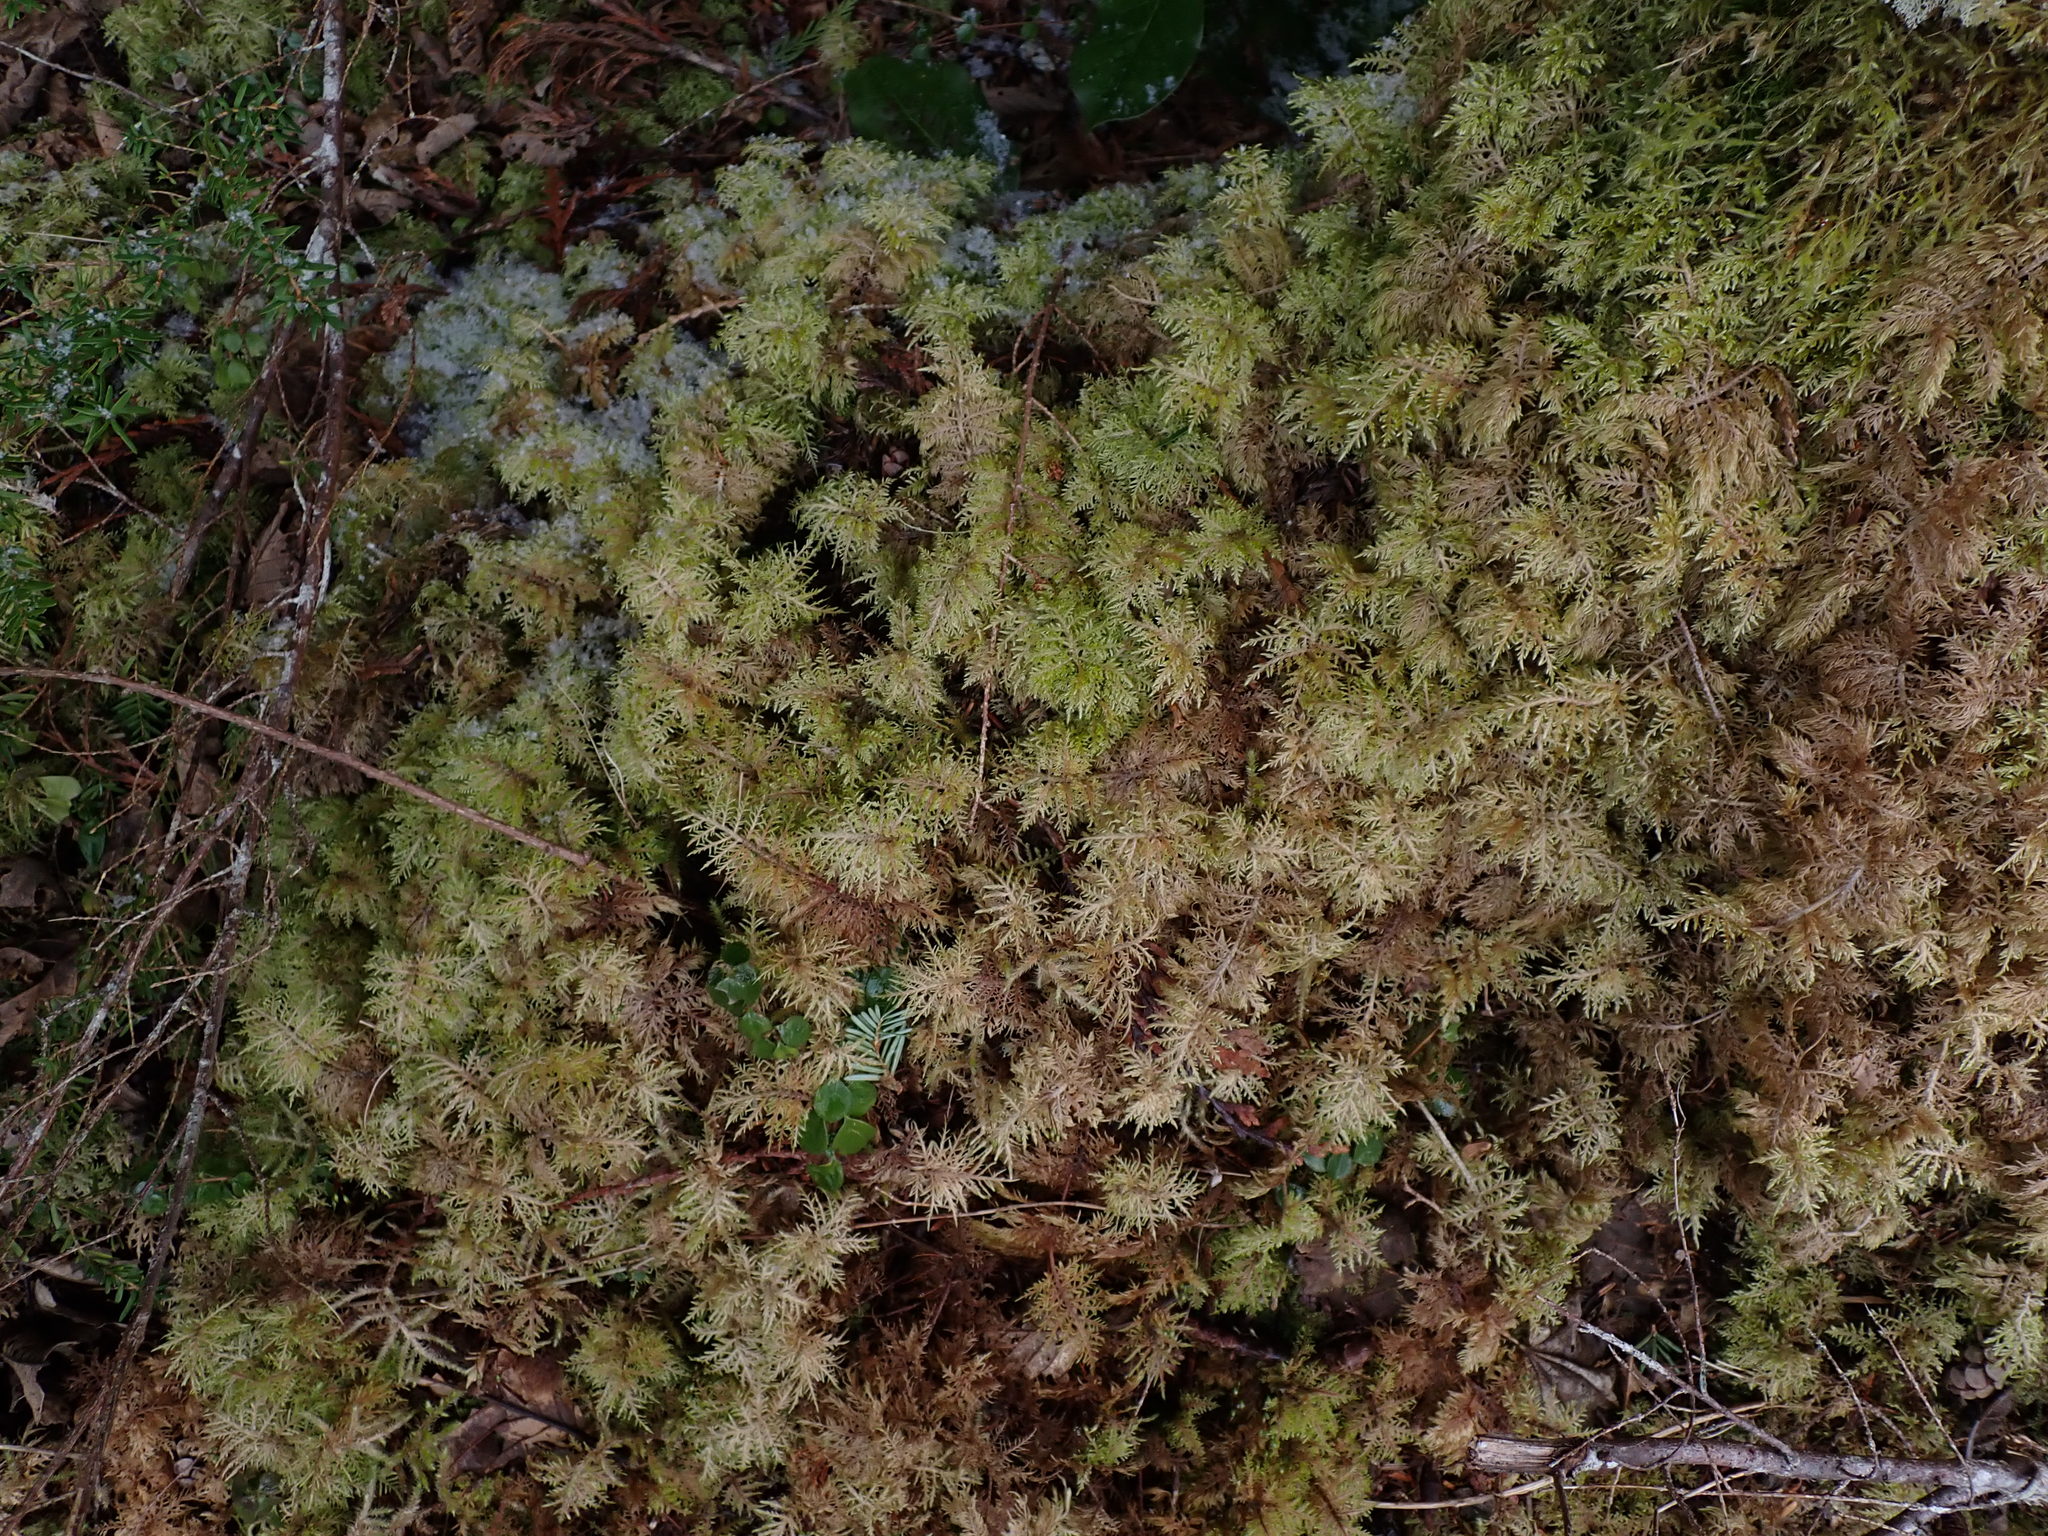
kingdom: Plantae
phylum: Bryophyta
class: Bryopsida
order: Hypnales
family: Hylocomiaceae
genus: Hylocomium
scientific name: Hylocomium splendens
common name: Stairstep moss
